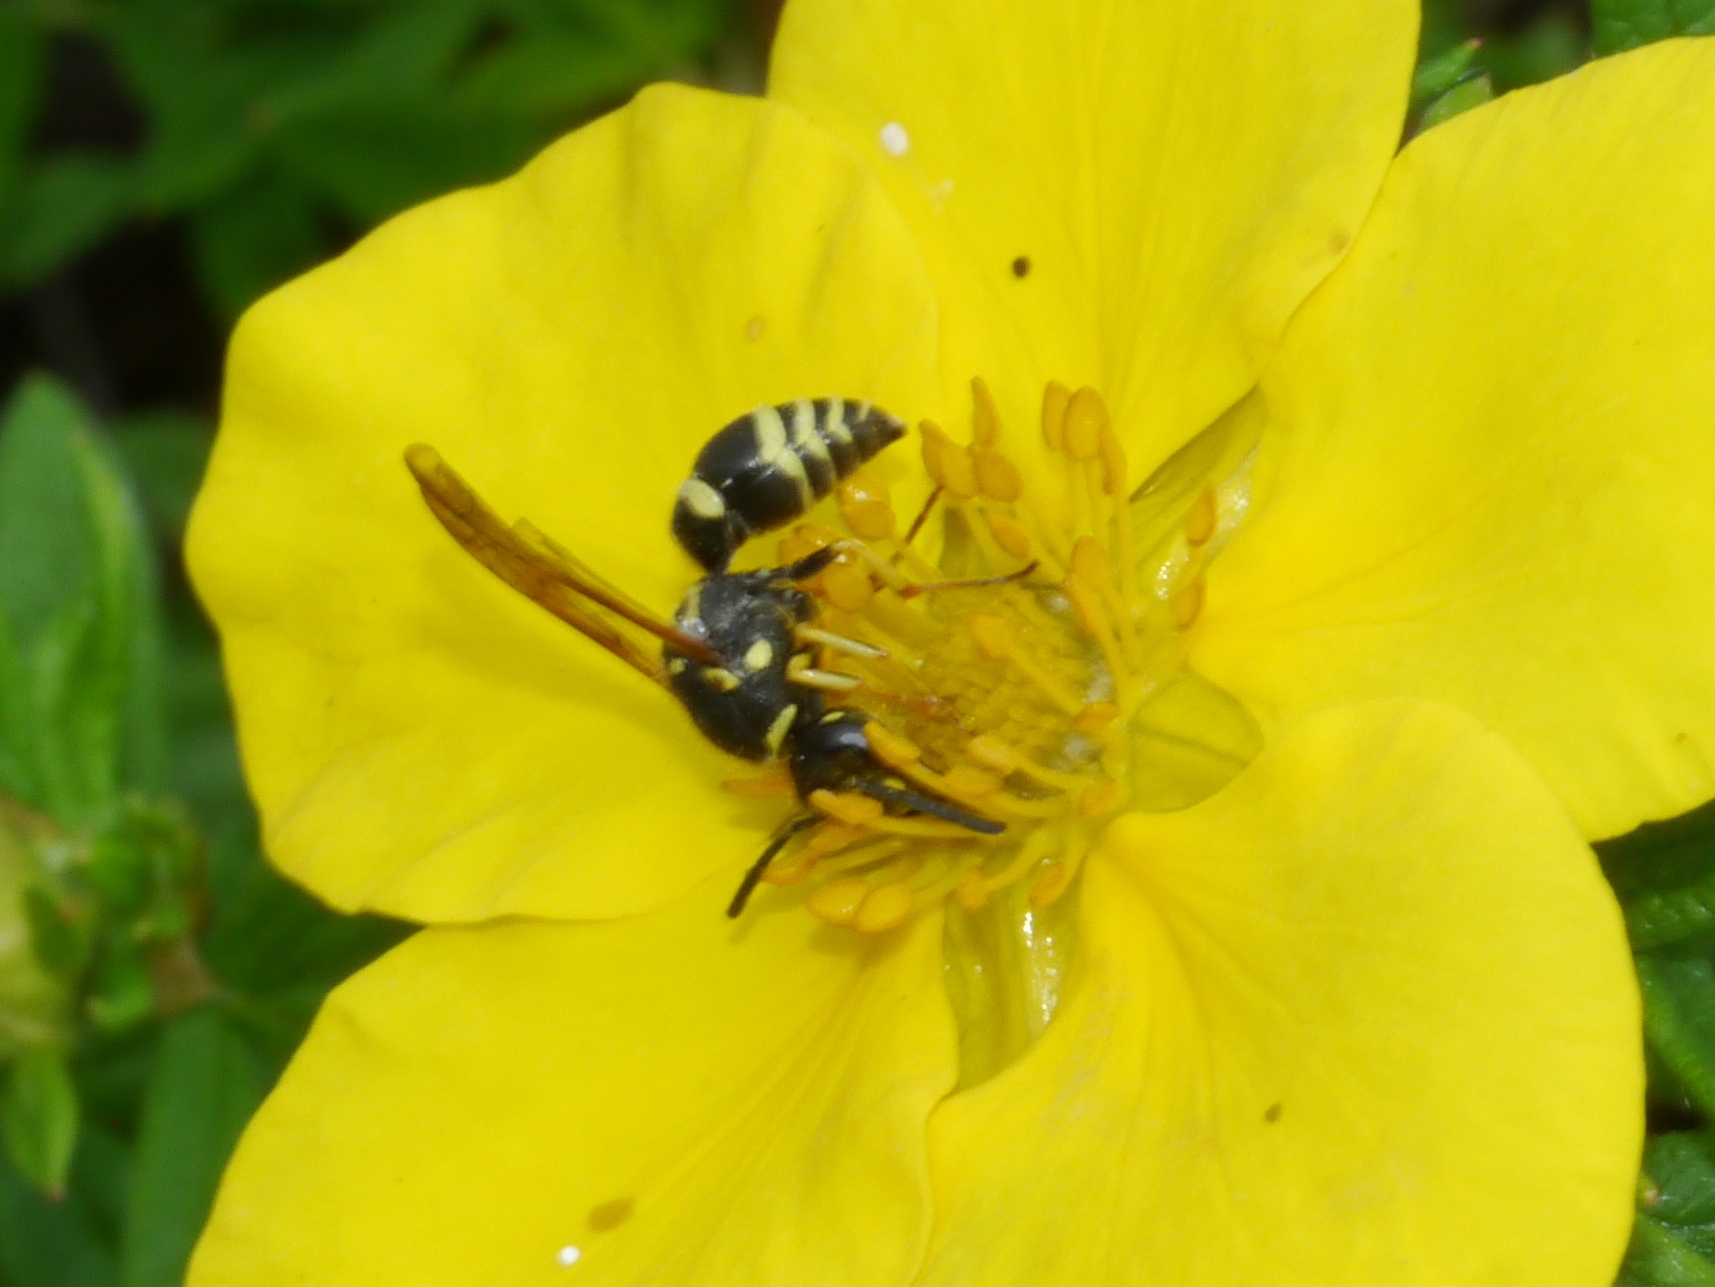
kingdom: Animalia
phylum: Arthropoda
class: Insecta
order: Hymenoptera
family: Vespidae
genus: Ancistrocerus
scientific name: Ancistrocerus spilogaster
